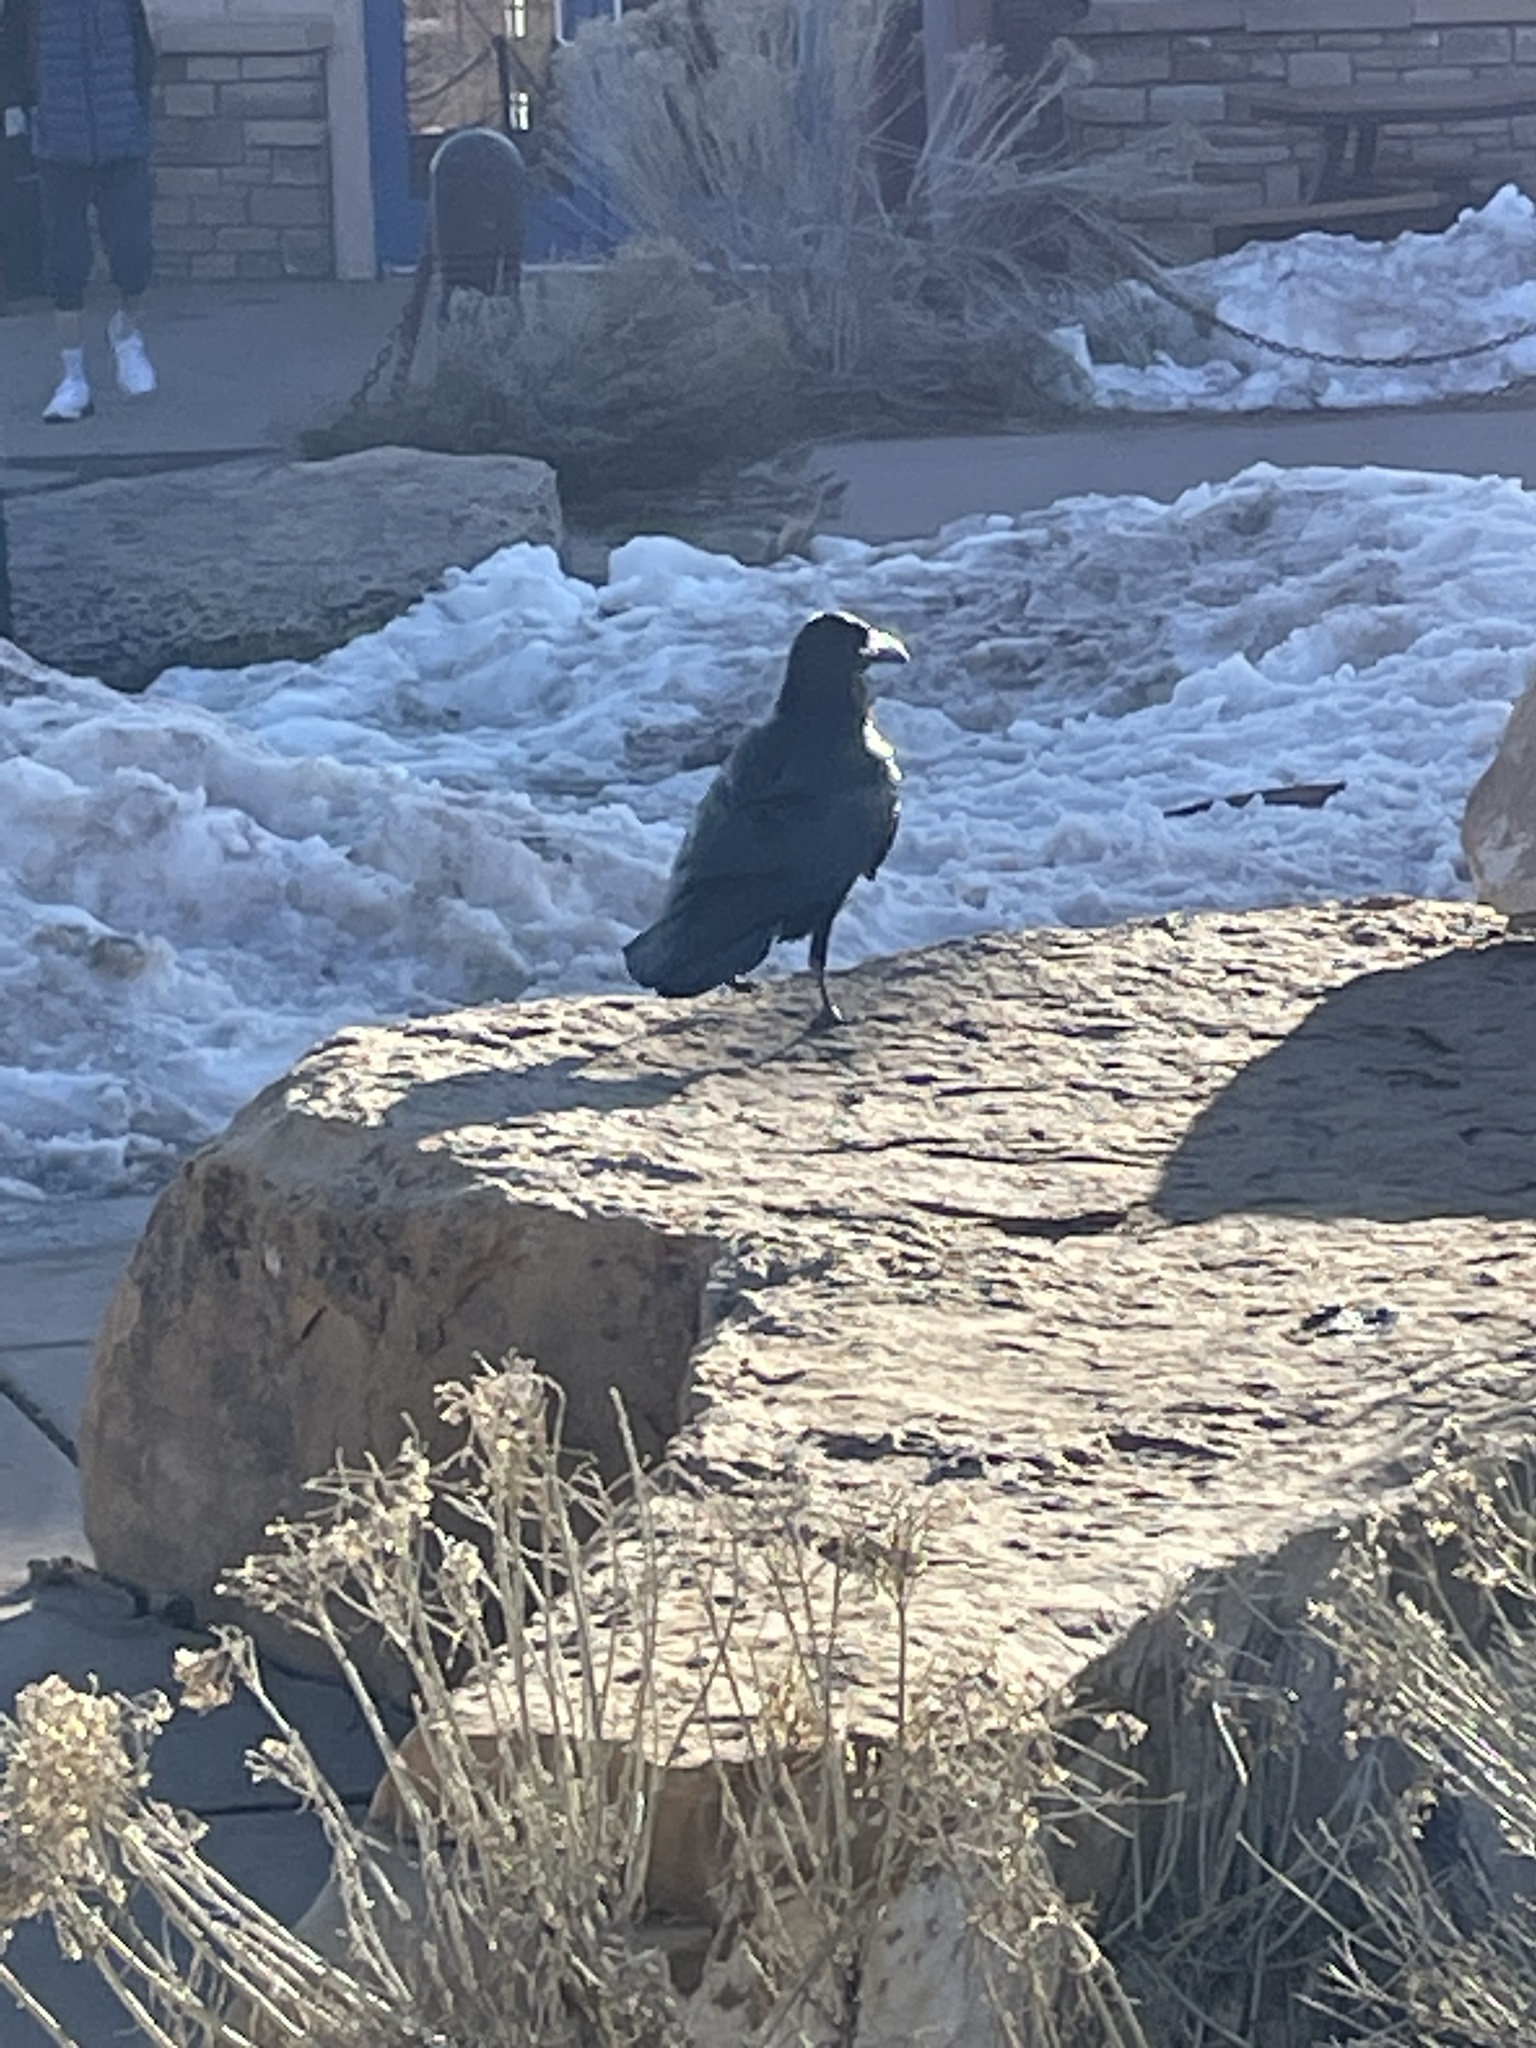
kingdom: Animalia
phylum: Chordata
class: Aves
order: Passeriformes
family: Corvidae
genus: Corvus
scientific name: Corvus corax
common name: Common raven
